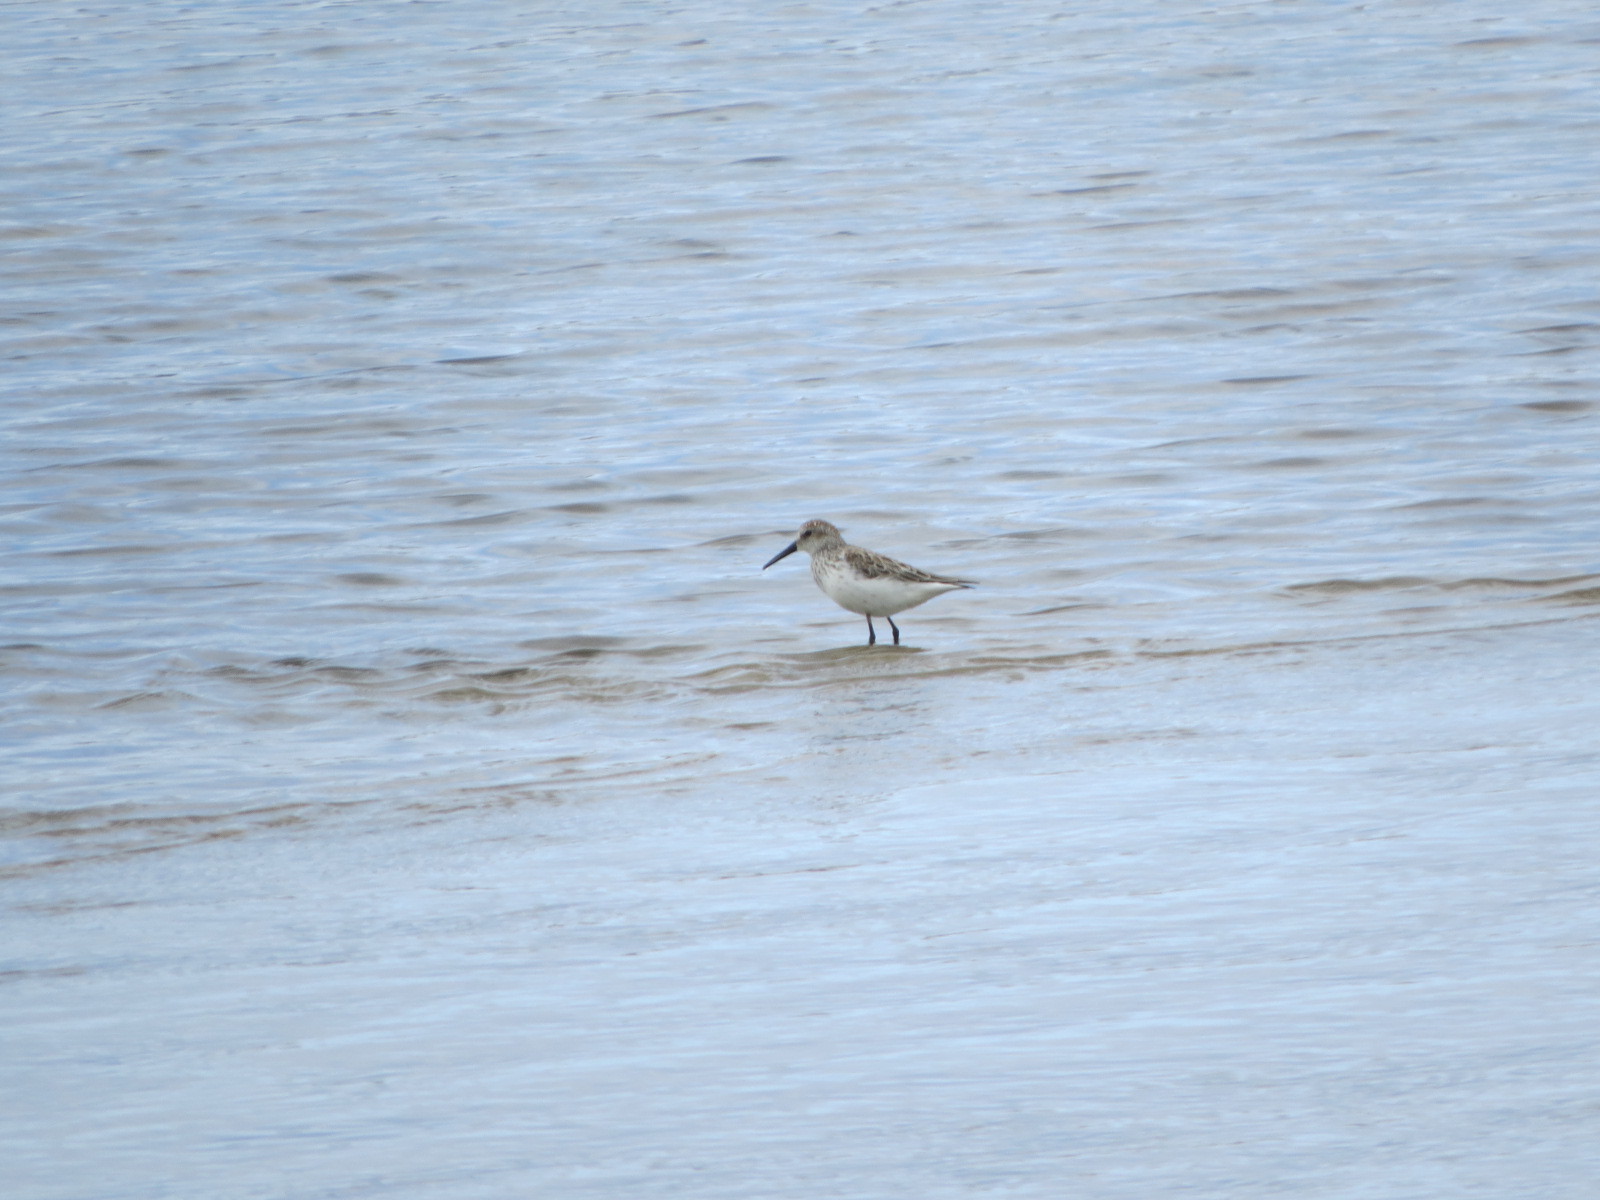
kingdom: Animalia
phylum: Chordata
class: Aves
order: Charadriiformes
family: Scolopacidae
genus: Calidris
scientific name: Calidris mauri
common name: Western sandpiper
